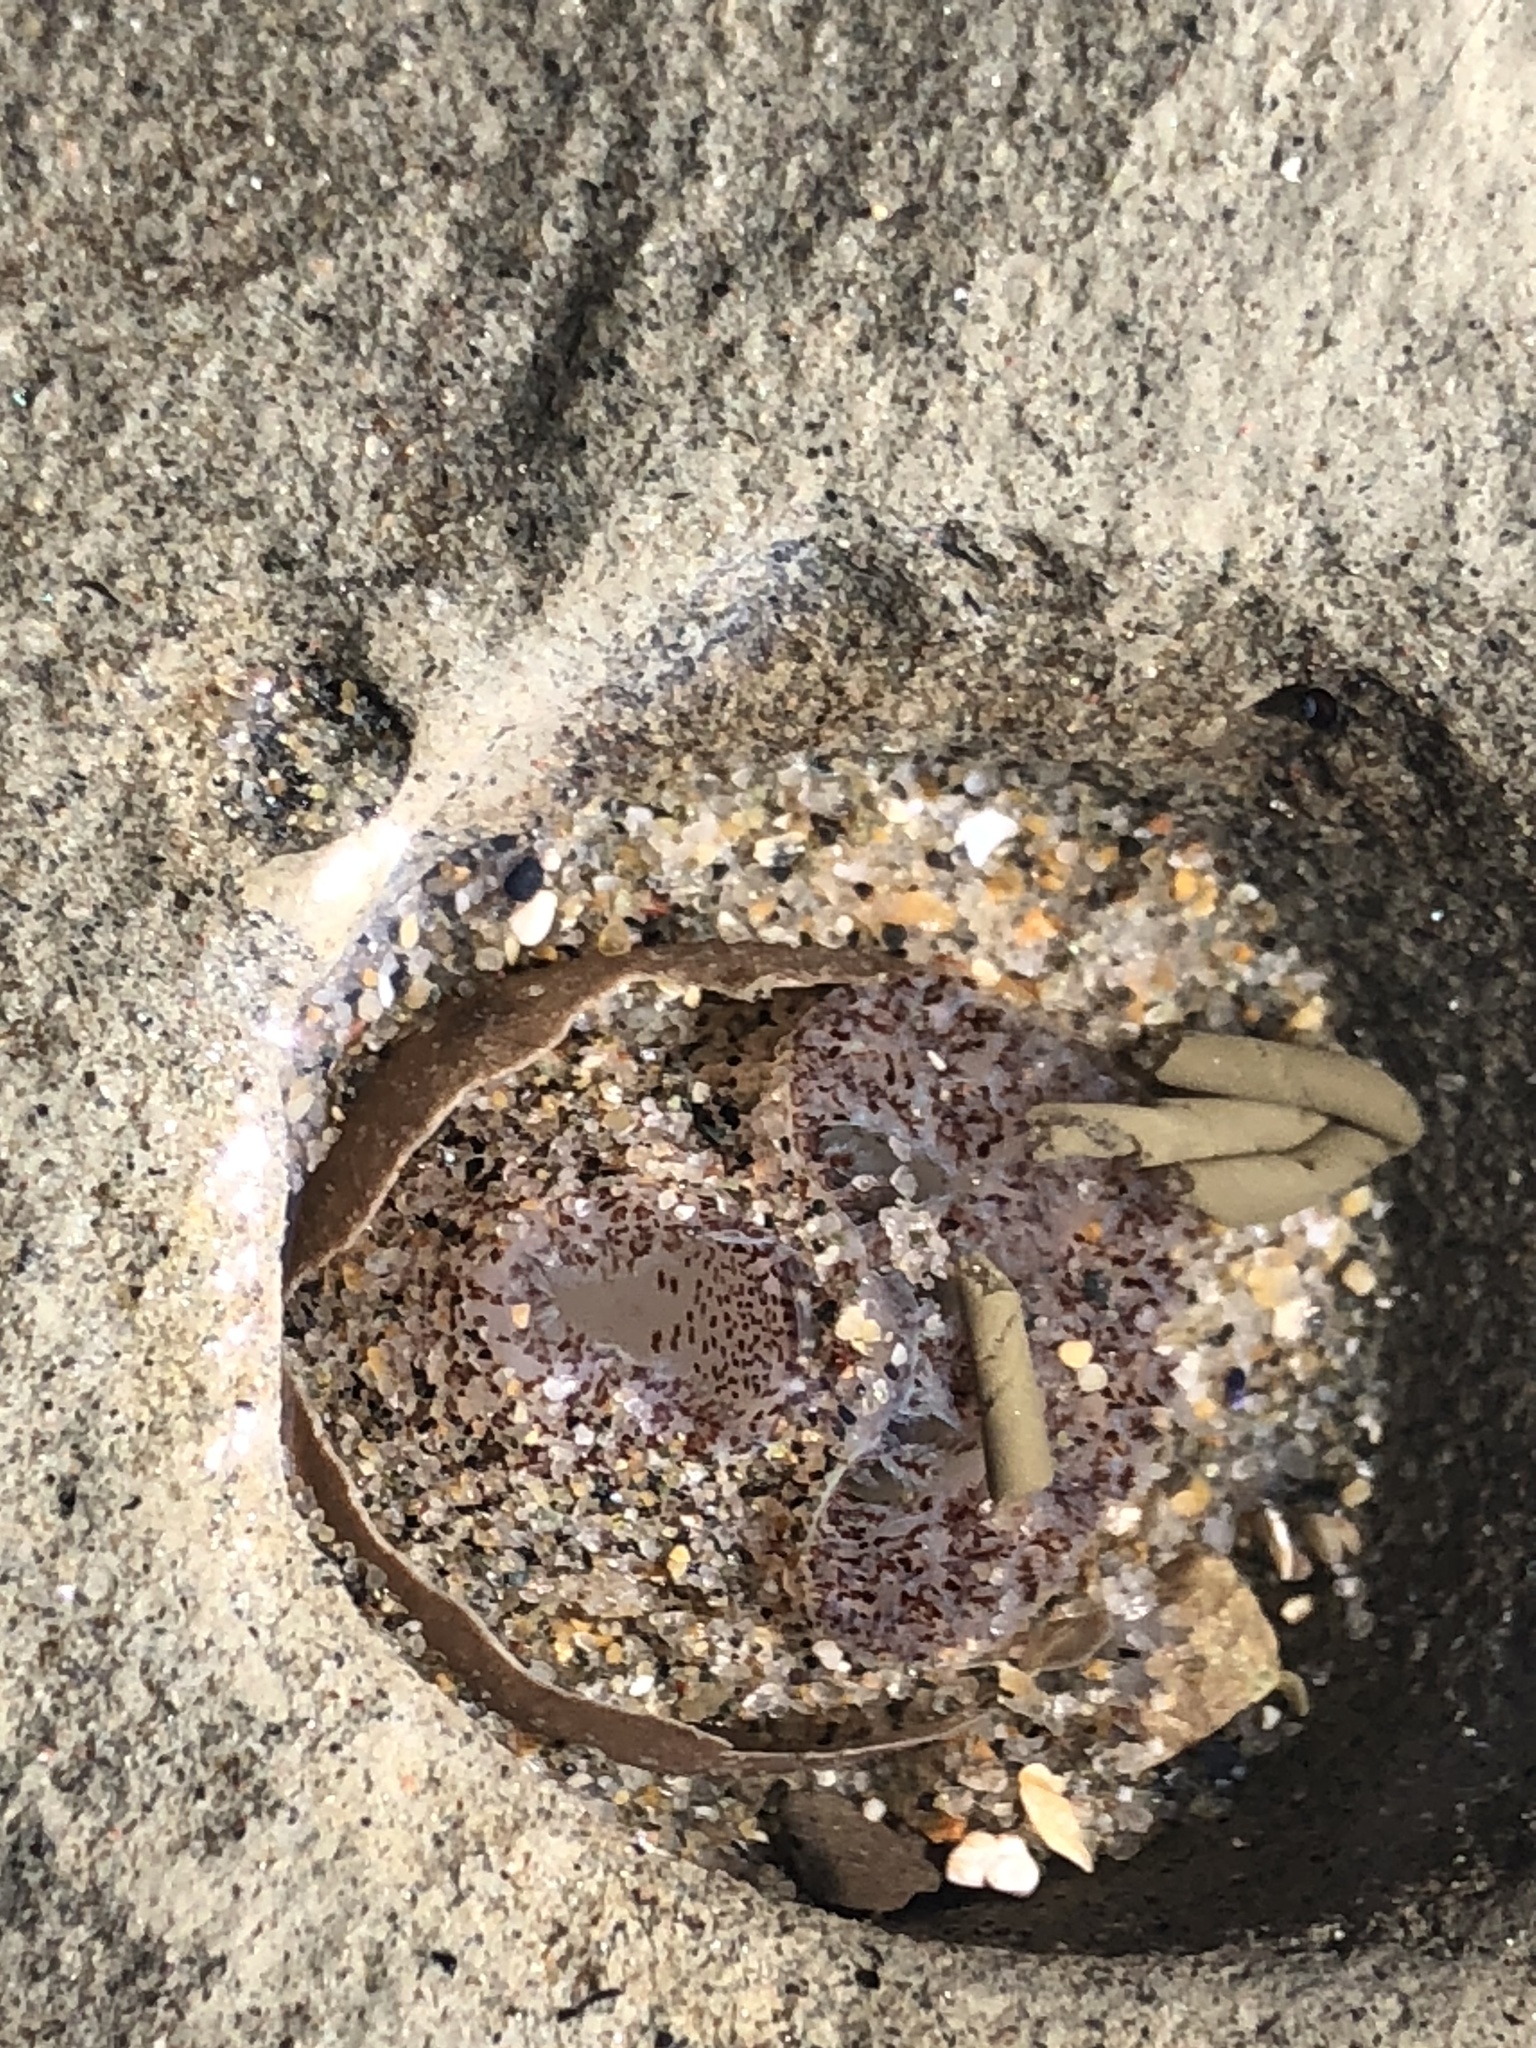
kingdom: Animalia
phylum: Mollusca
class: Bivalvia
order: Myida
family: Pholadidae
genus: Parapholas
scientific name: Parapholas californica
